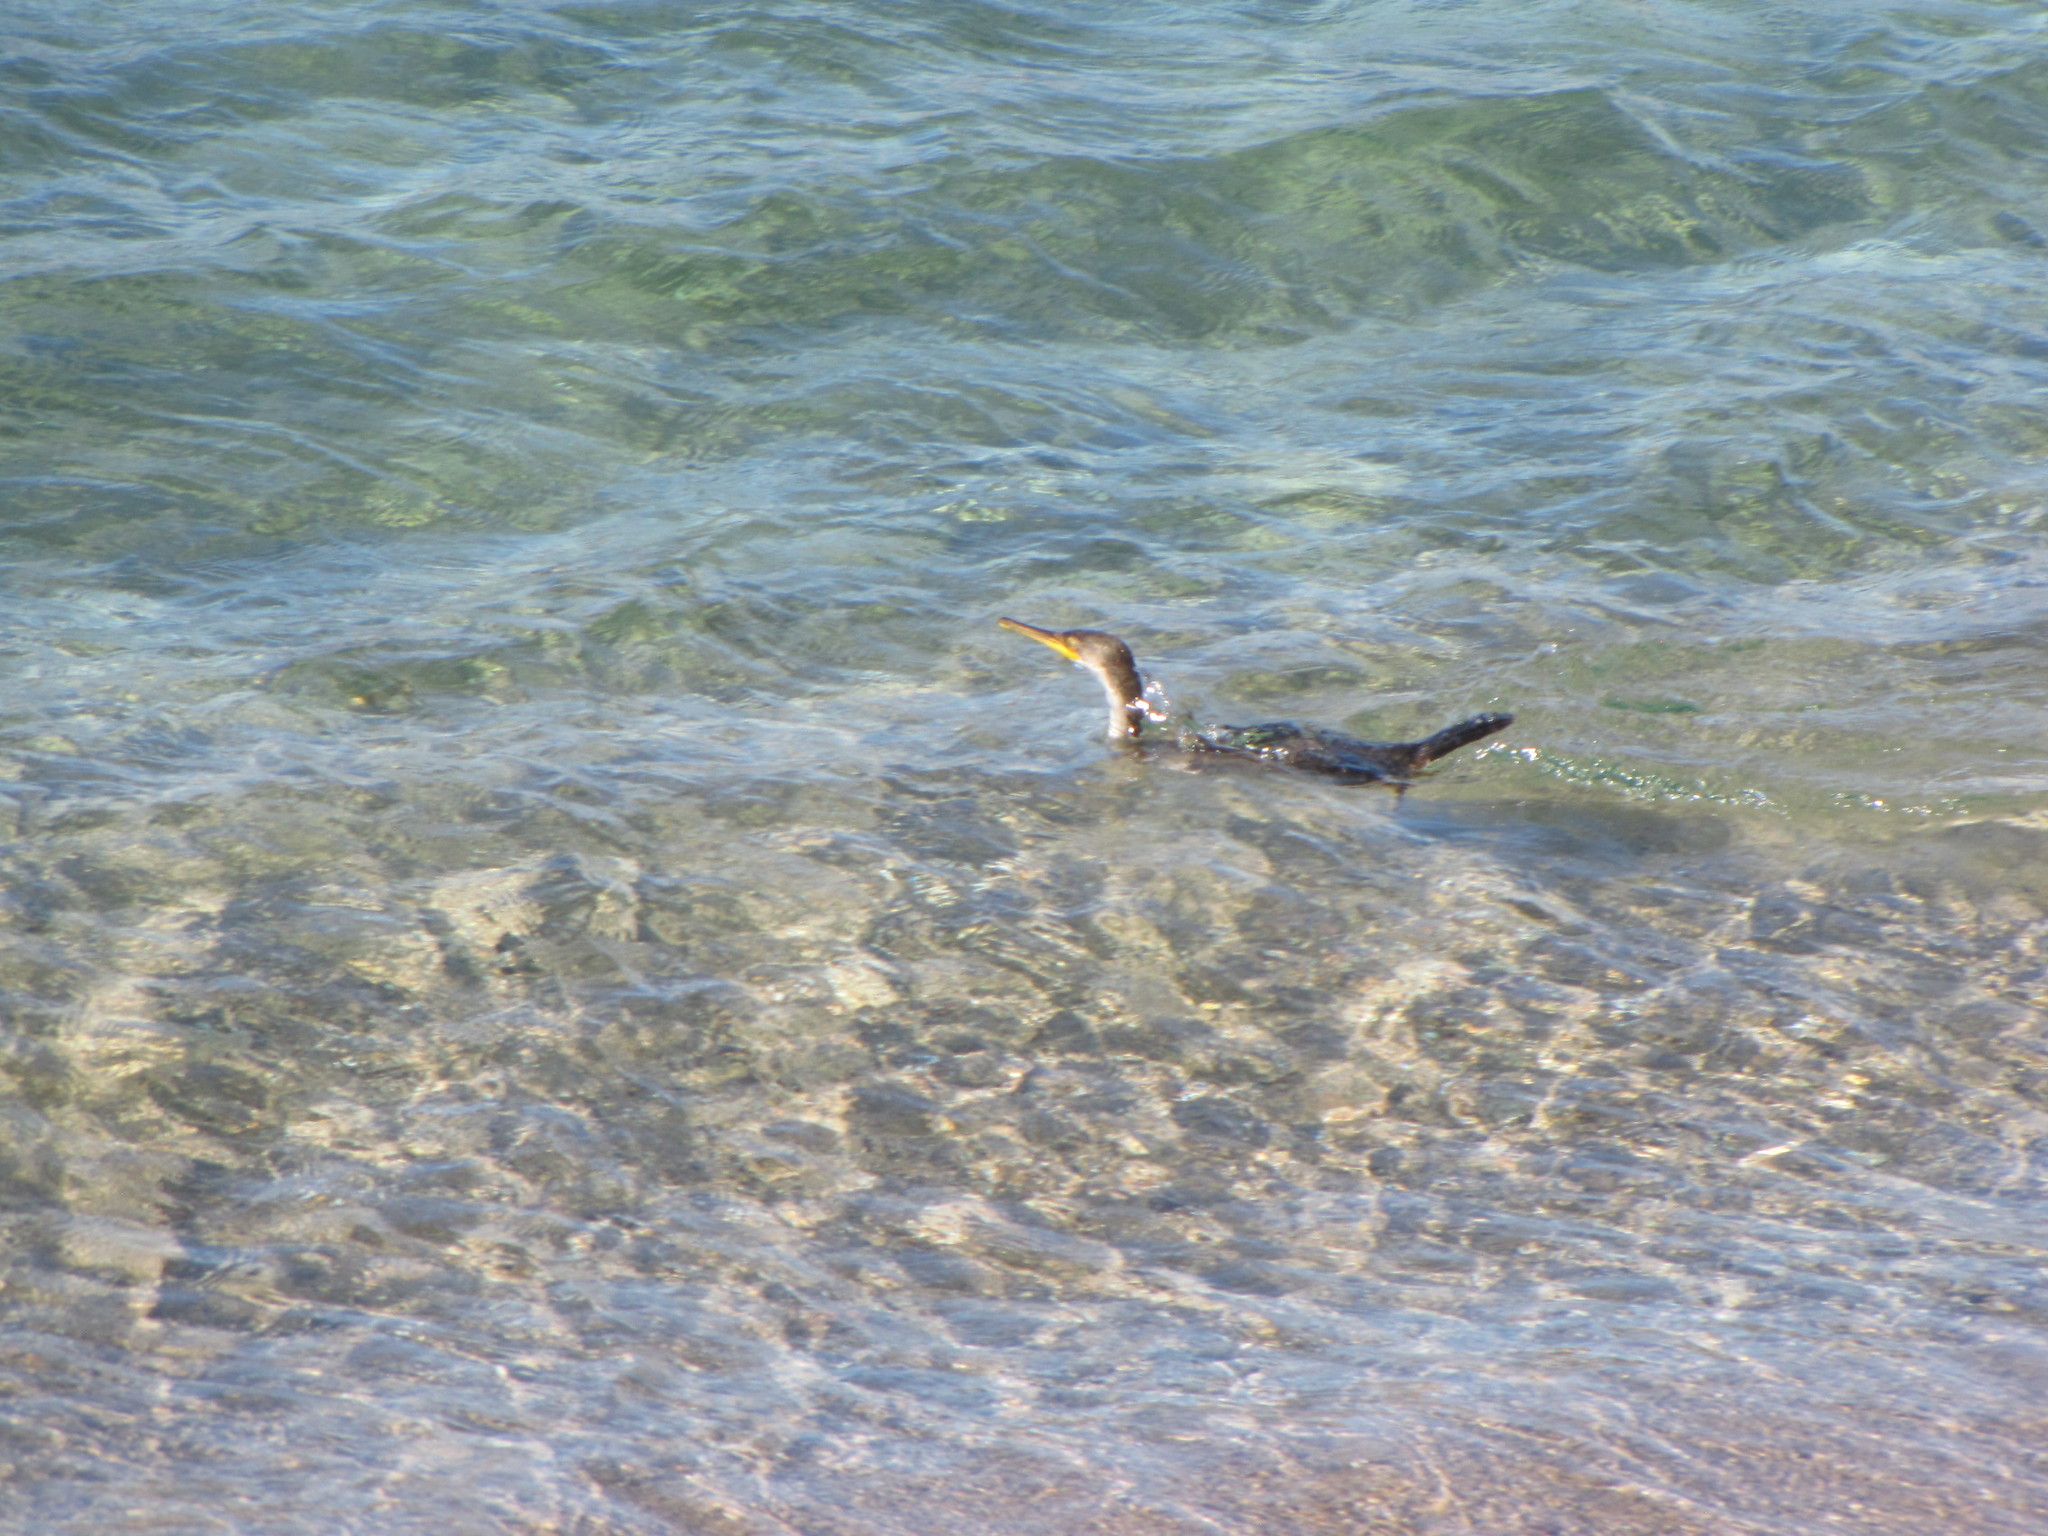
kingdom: Animalia
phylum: Chordata
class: Aves
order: Suliformes
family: Phalacrocoracidae
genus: Phalacrocorax
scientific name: Phalacrocorax aristotelis
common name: European shag
